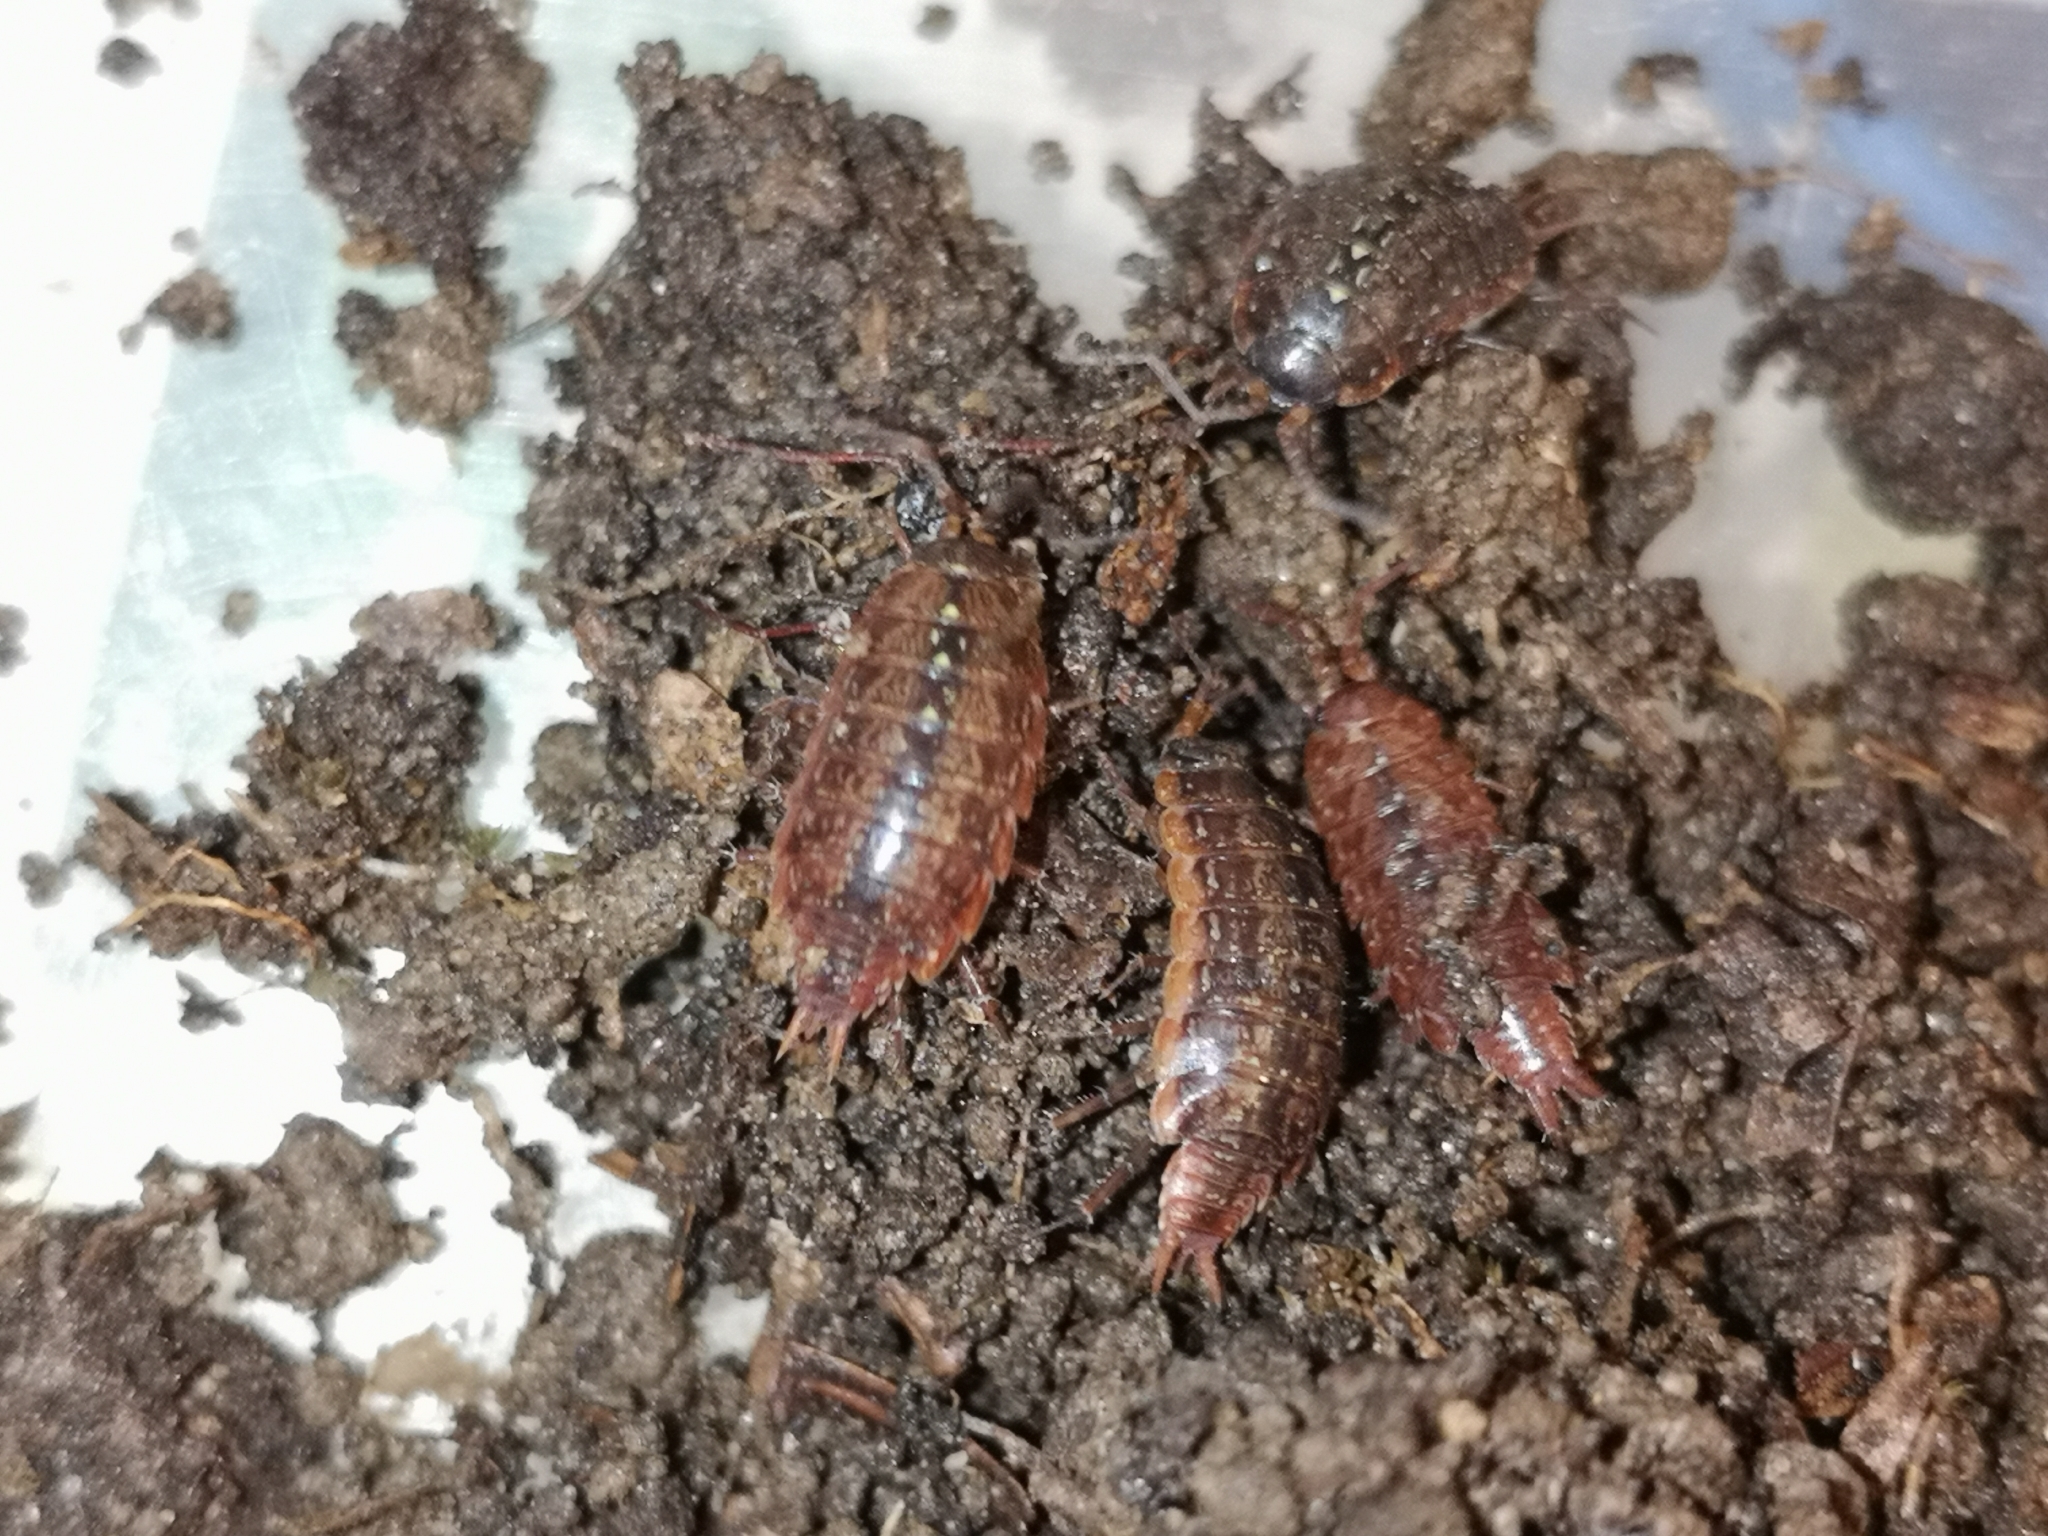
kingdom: Animalia
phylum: Arthropoda
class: Malacostraca
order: Isopoda
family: Philosciidae
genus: Philoscia
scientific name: Philoscia affinis
